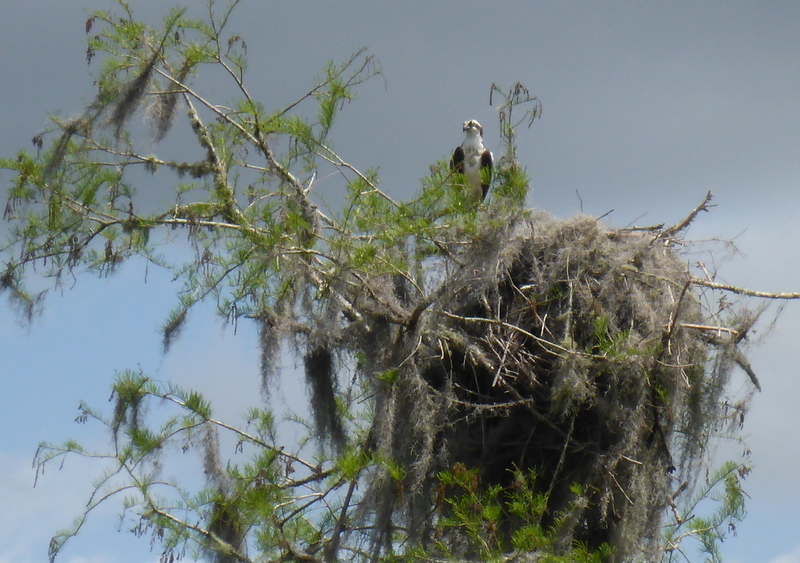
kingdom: Animalia
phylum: Chordata
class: Aves
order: Accipitriformes
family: Pandionidae
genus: Pandion
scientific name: Pandion haliaetus
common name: Osprey
